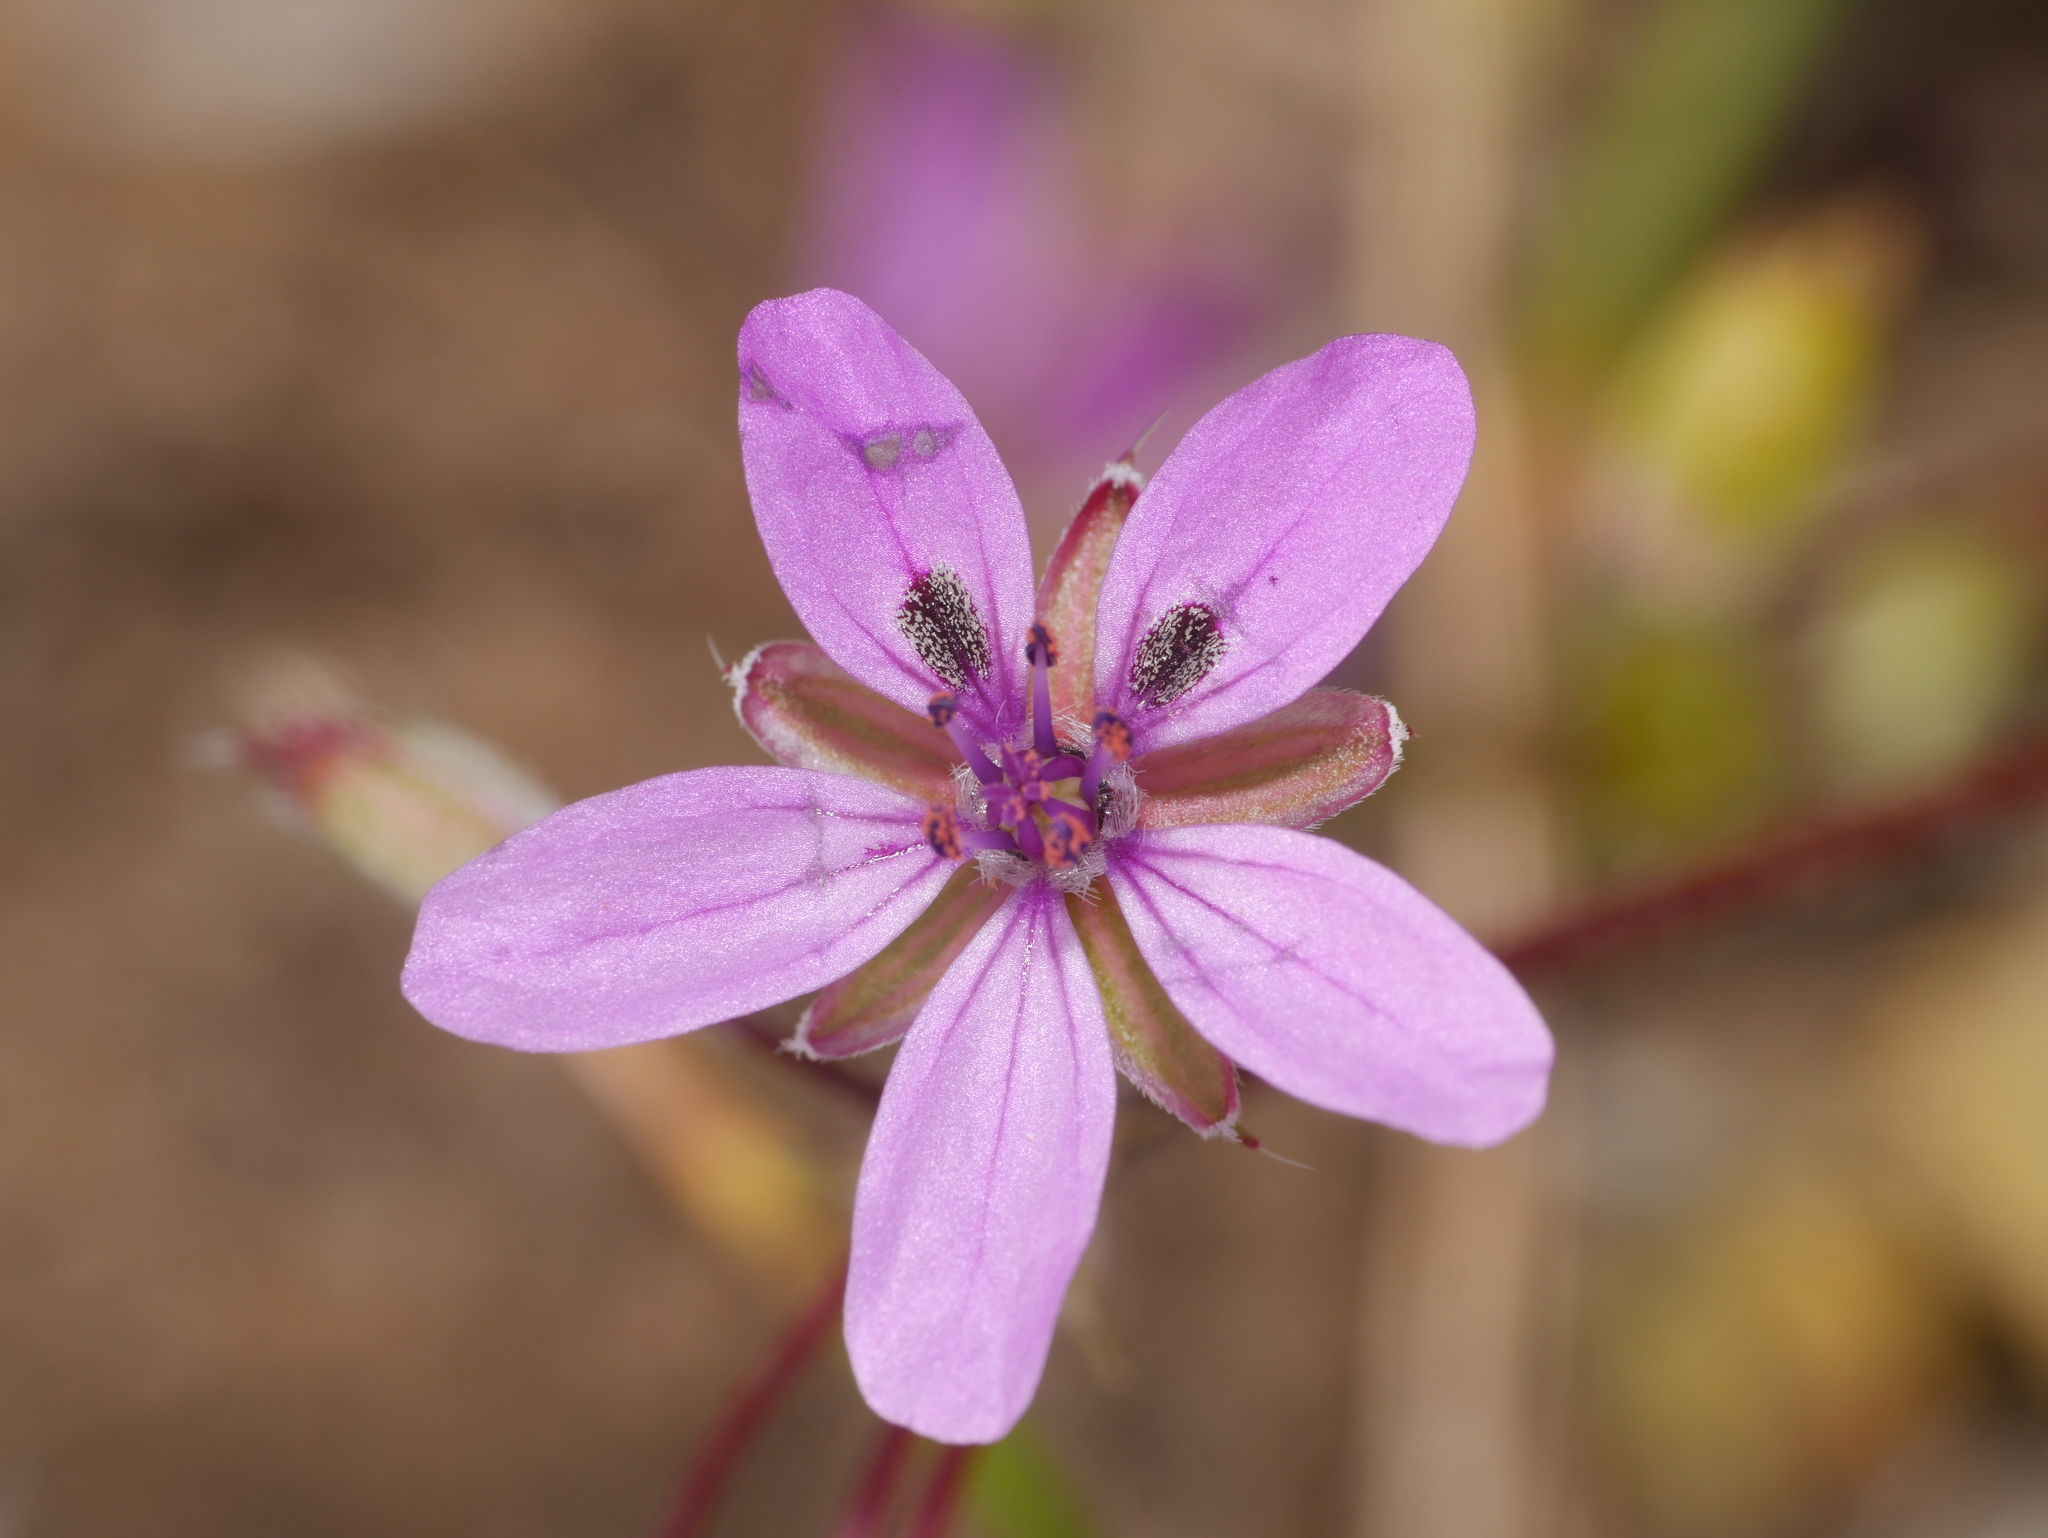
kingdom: Plantae
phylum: Tracheophyta
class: Magnoliopsida
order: Geraniales
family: Geraniaceae
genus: Erodium
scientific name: Erodium cicutarium
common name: Common stork's-bill
